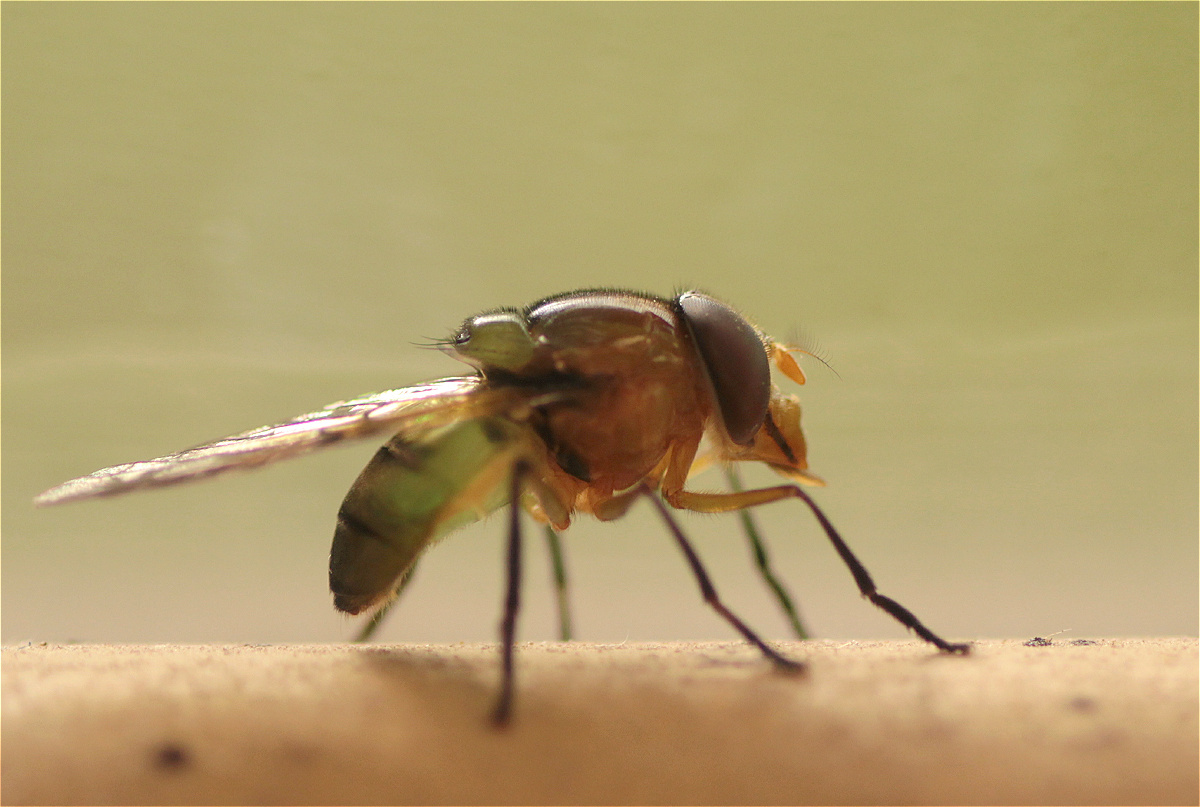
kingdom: Animalia
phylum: Arthropoda
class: Insecta
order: Diptera
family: Syrphidae
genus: Copestylum
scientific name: Copestylum vagum
